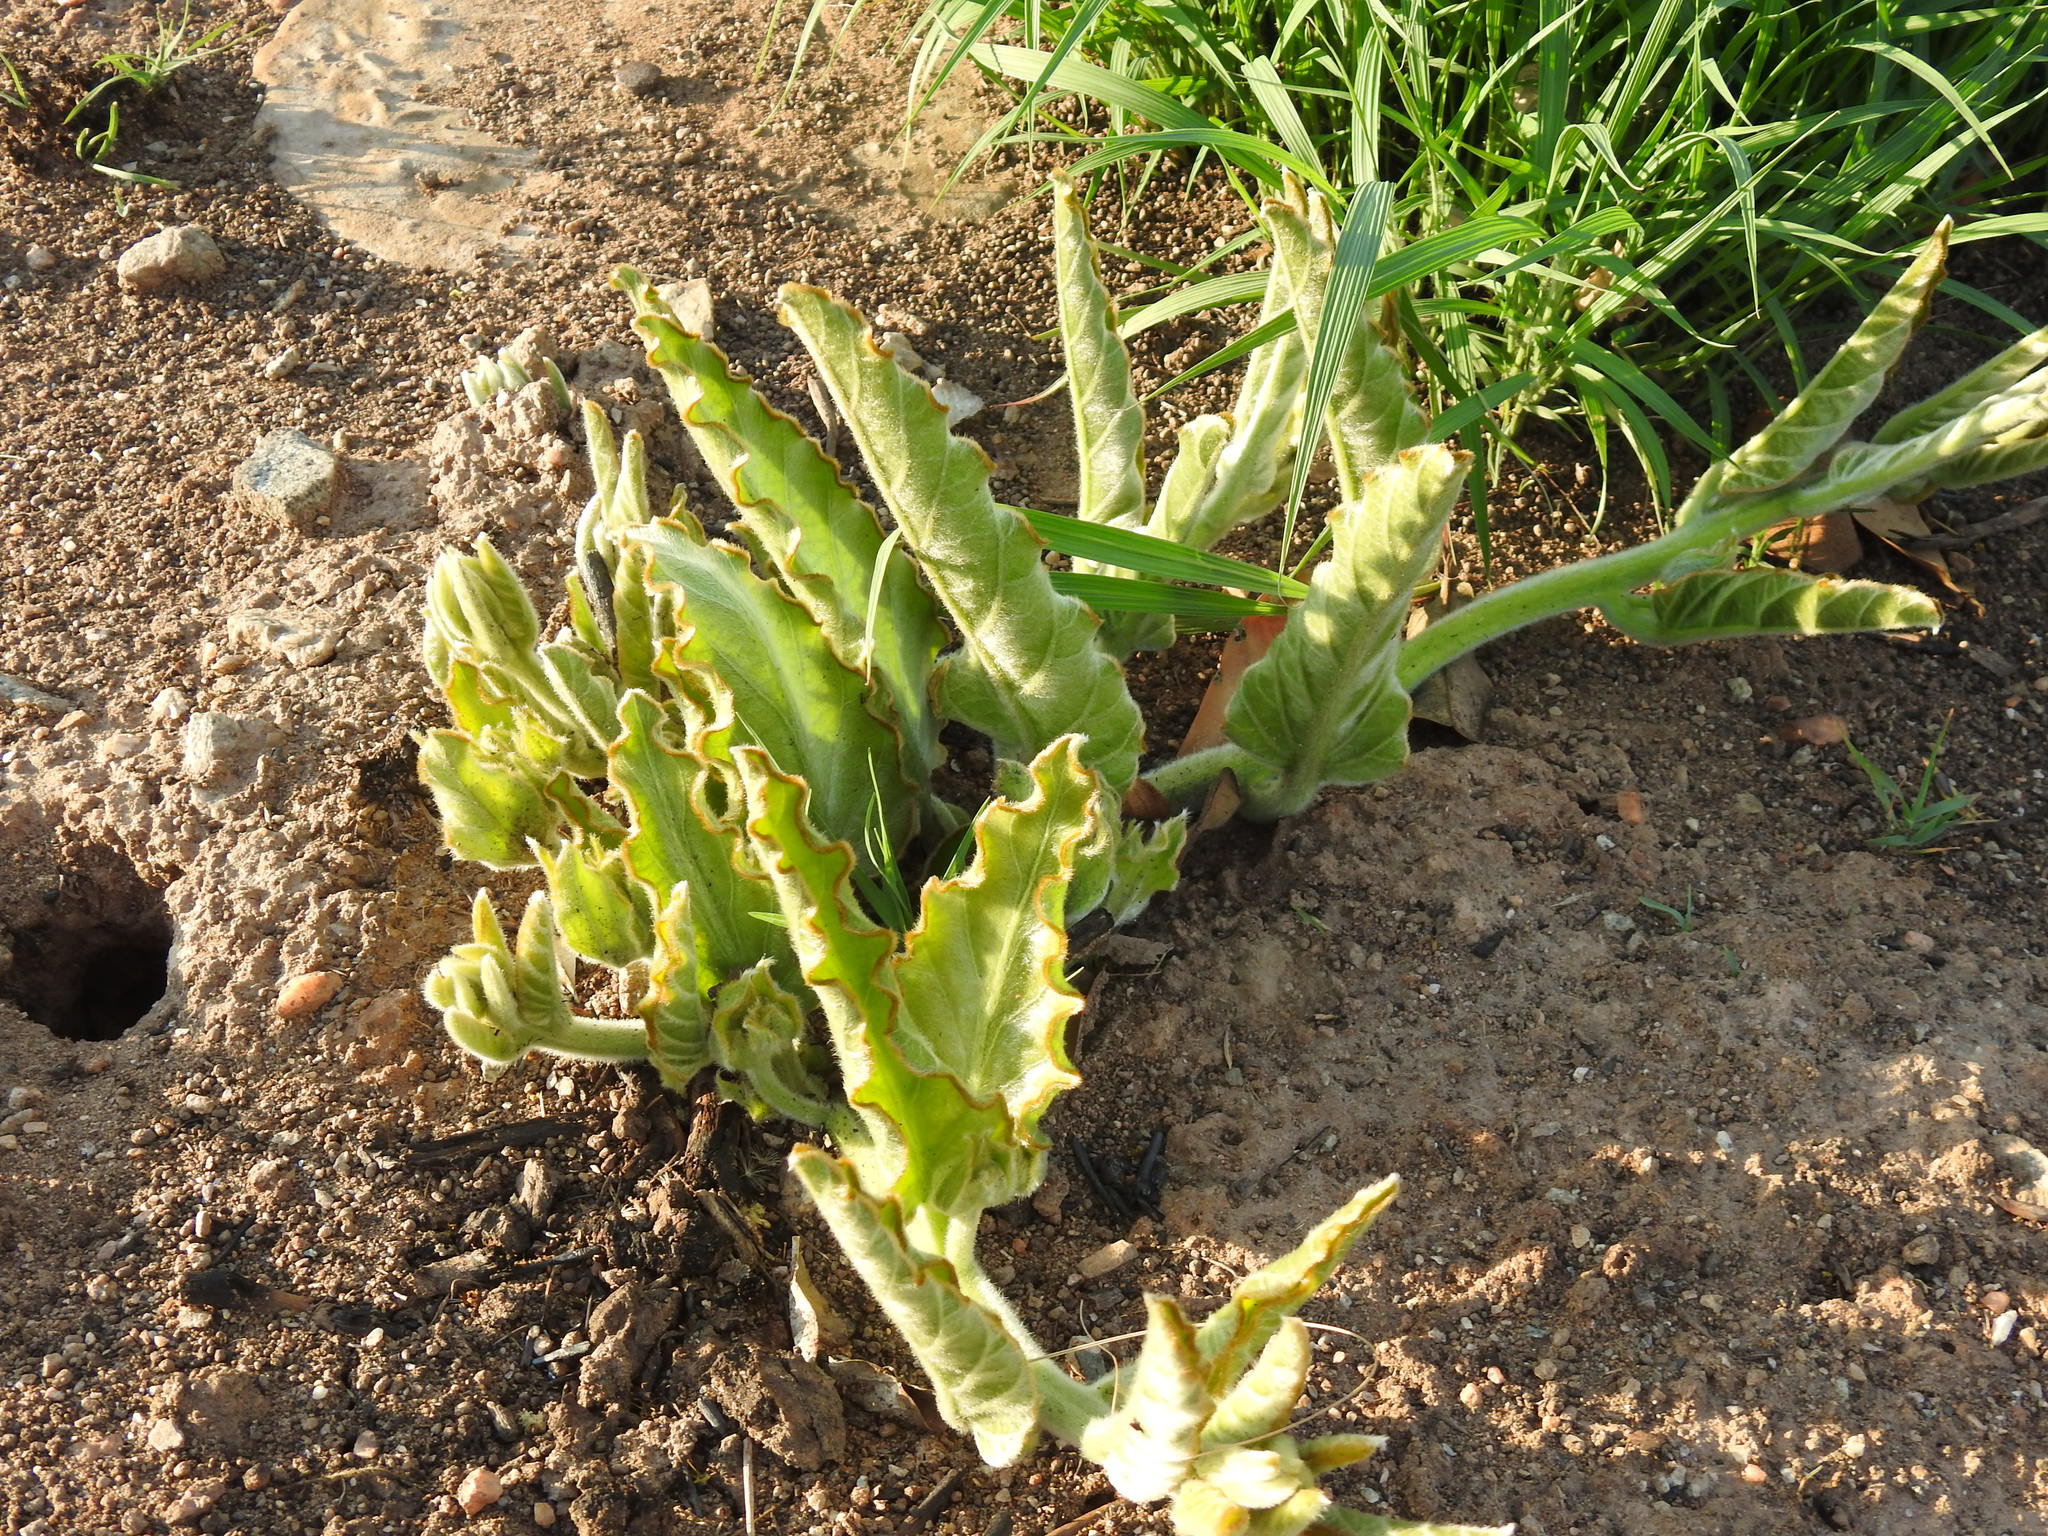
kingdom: Plantae
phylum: Tracheophyta
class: Magnoliopsida
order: Solanales
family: Convolvulaceae
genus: Ipomoea
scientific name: Ipomoea ommanneyi
